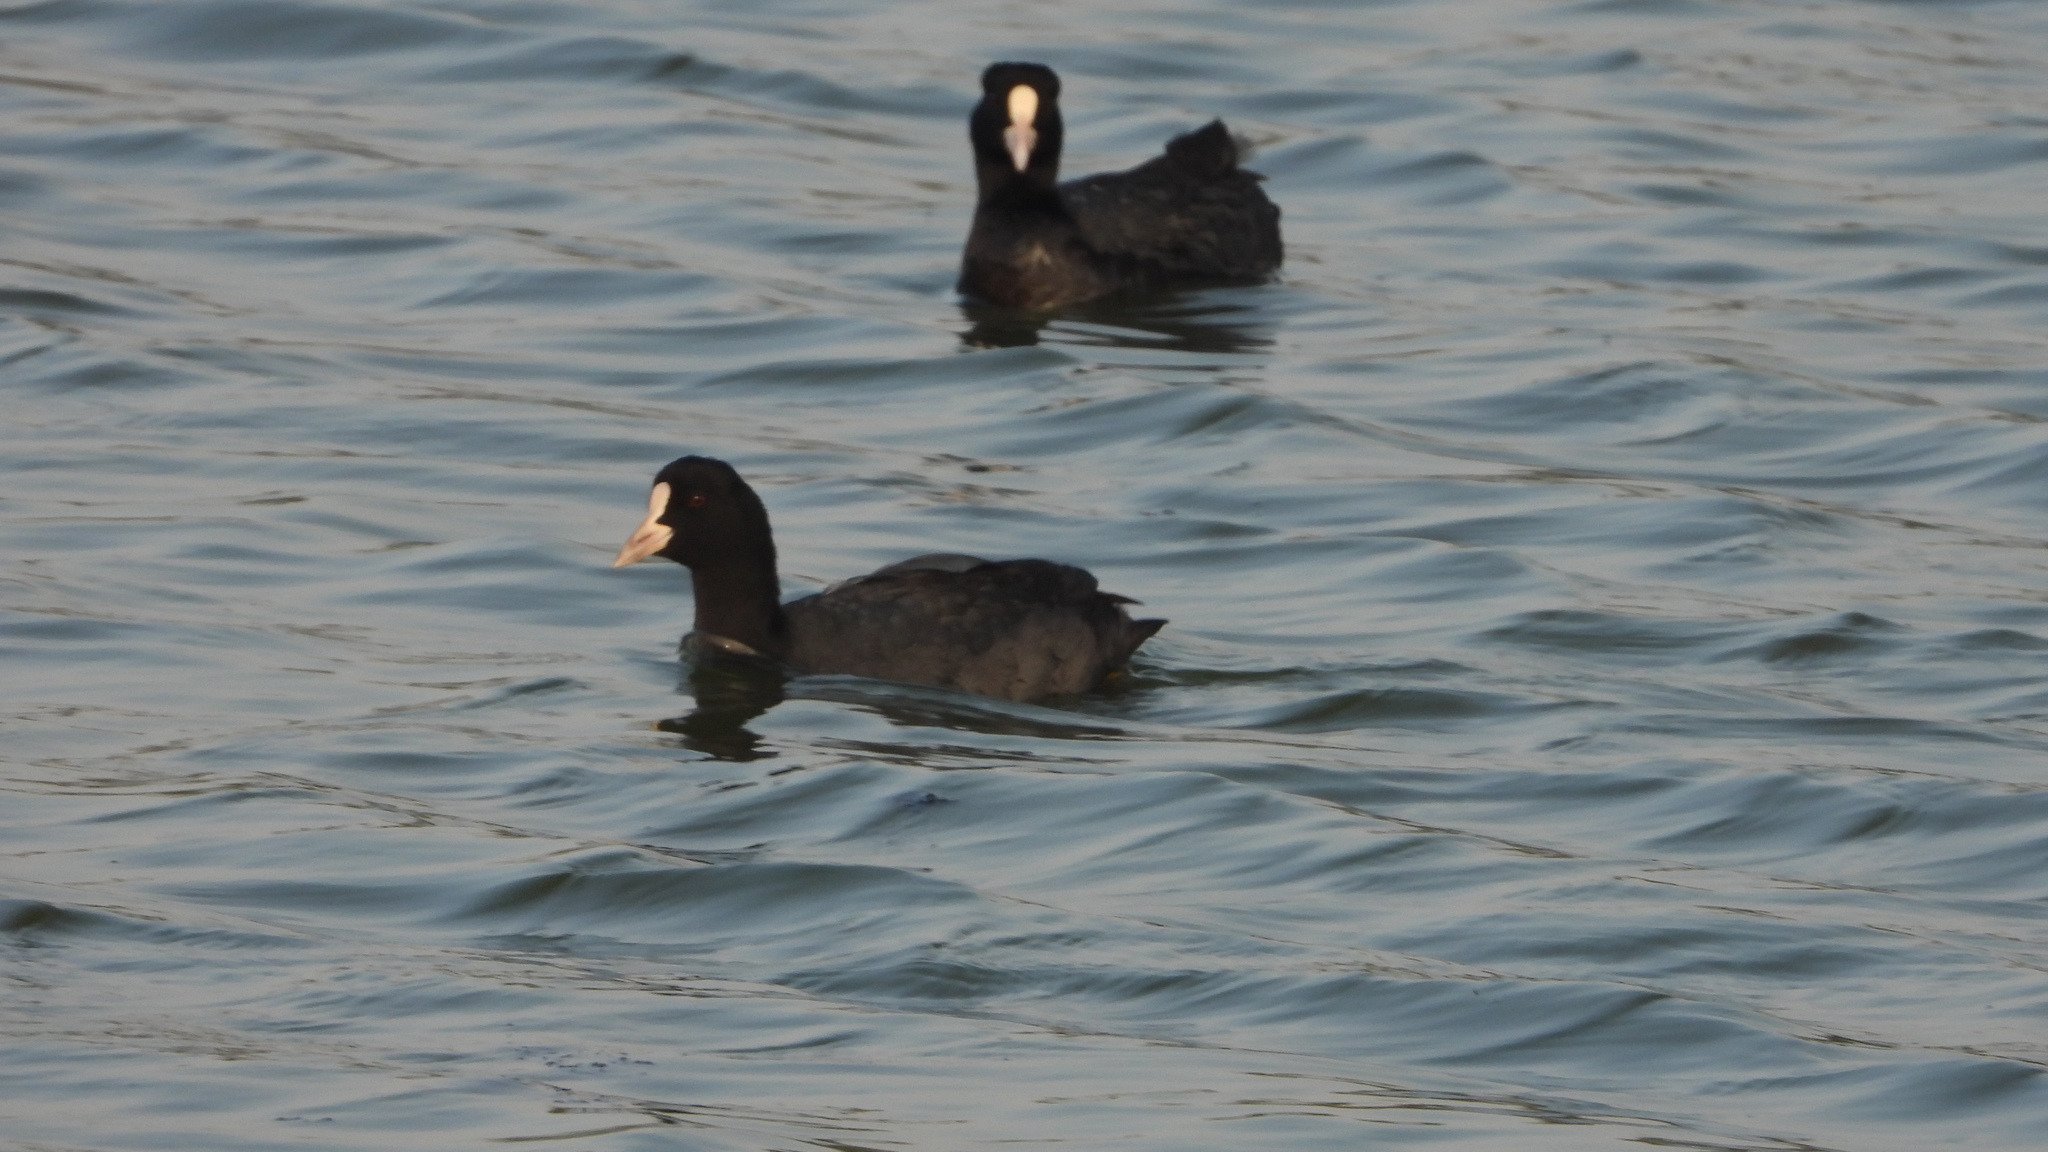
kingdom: Animalia
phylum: Chordata
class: Aves
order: Gruiformes
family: Rallidae
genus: Fulica
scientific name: Fulica atra
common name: Eurasian coot
